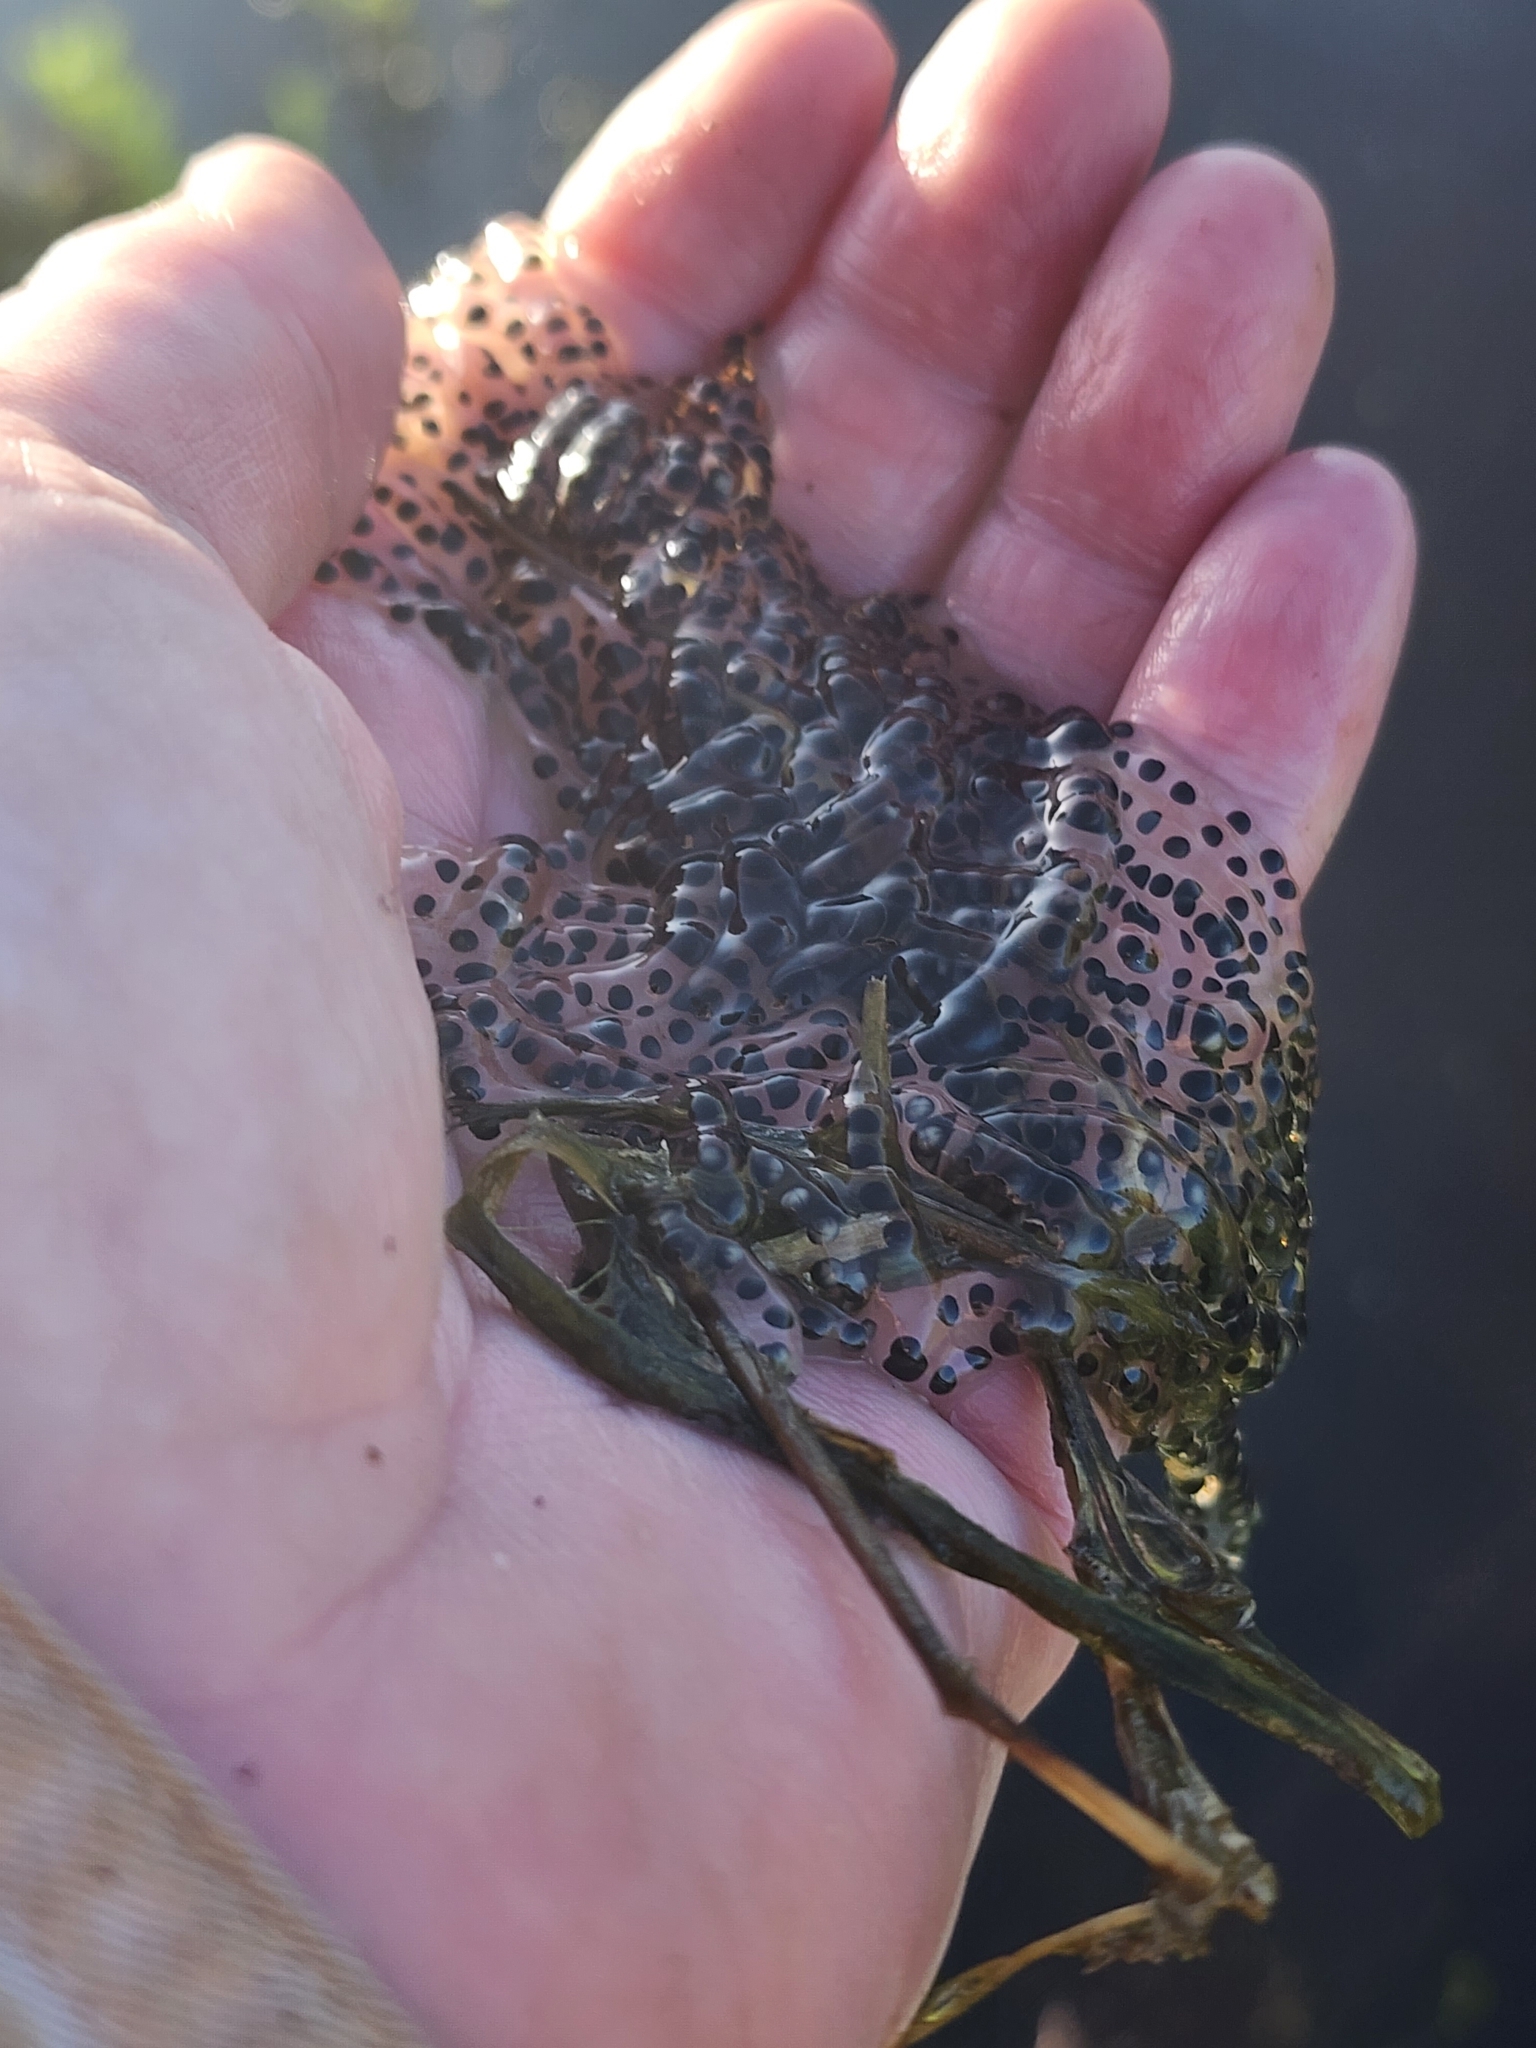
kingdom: Animalia
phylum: Chordata
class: Amphibia
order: Anura
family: Bufonidae
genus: Rhinella
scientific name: Rhinella marina
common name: Cane toad
